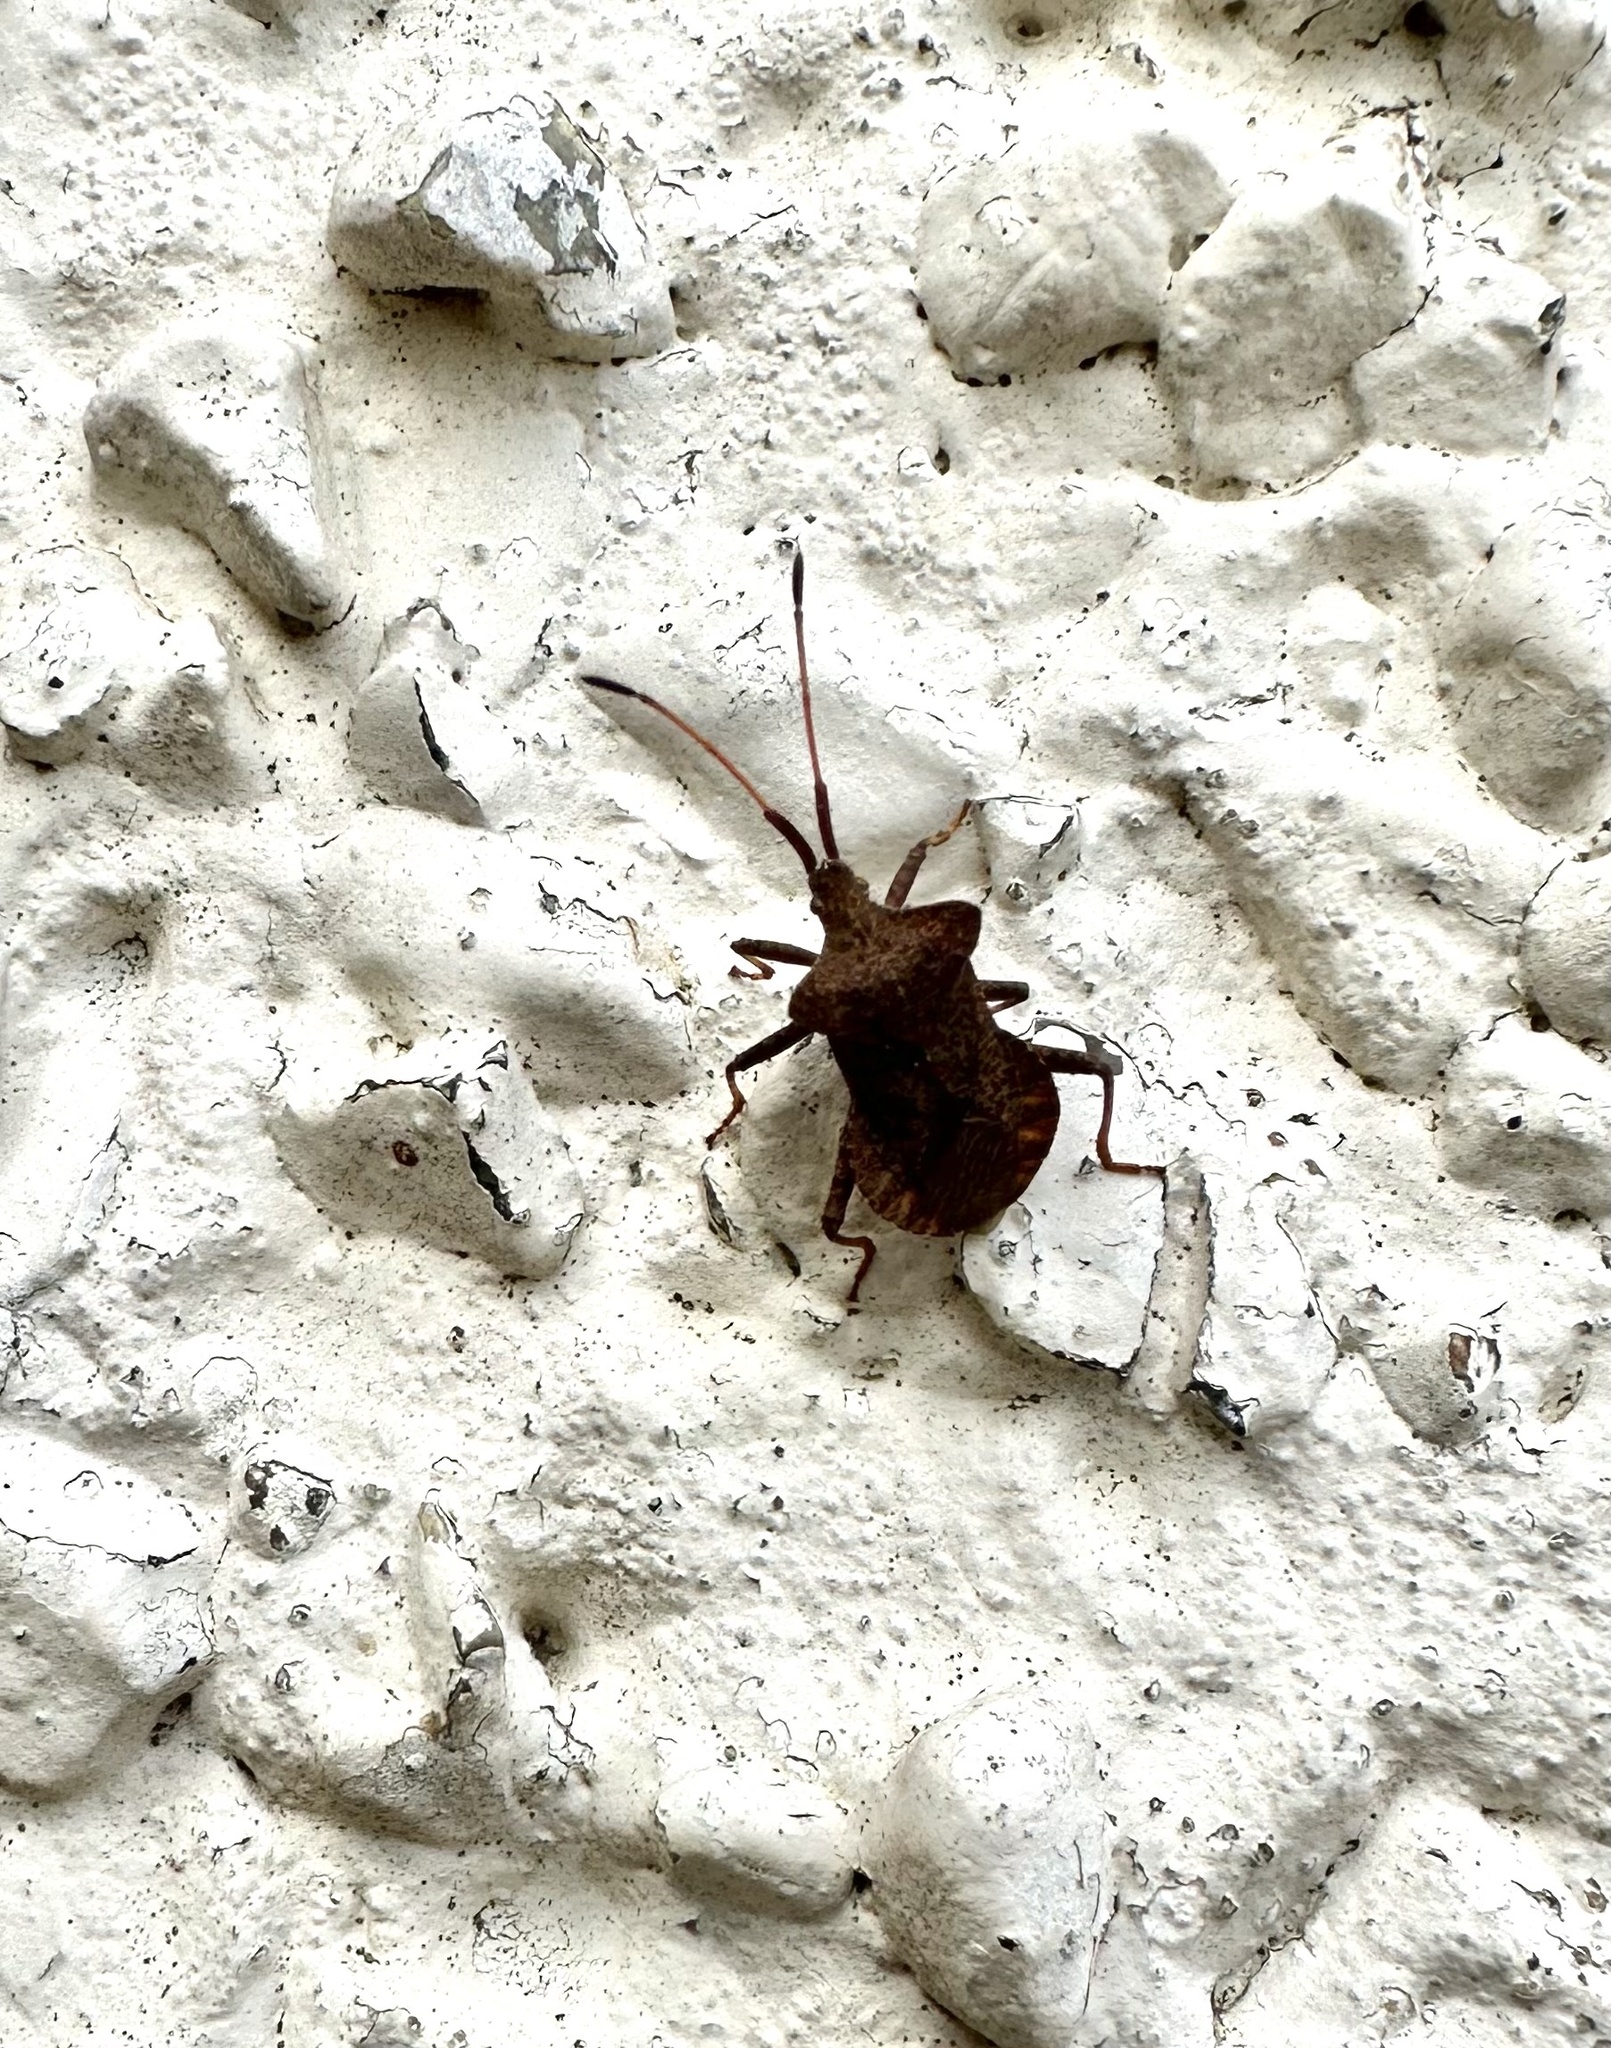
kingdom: Animalia
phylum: Arthropoda
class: Insecta
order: Hemiptera
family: Coreidae
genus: Coreus
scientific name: Coreus marginatus
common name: Dock bug
